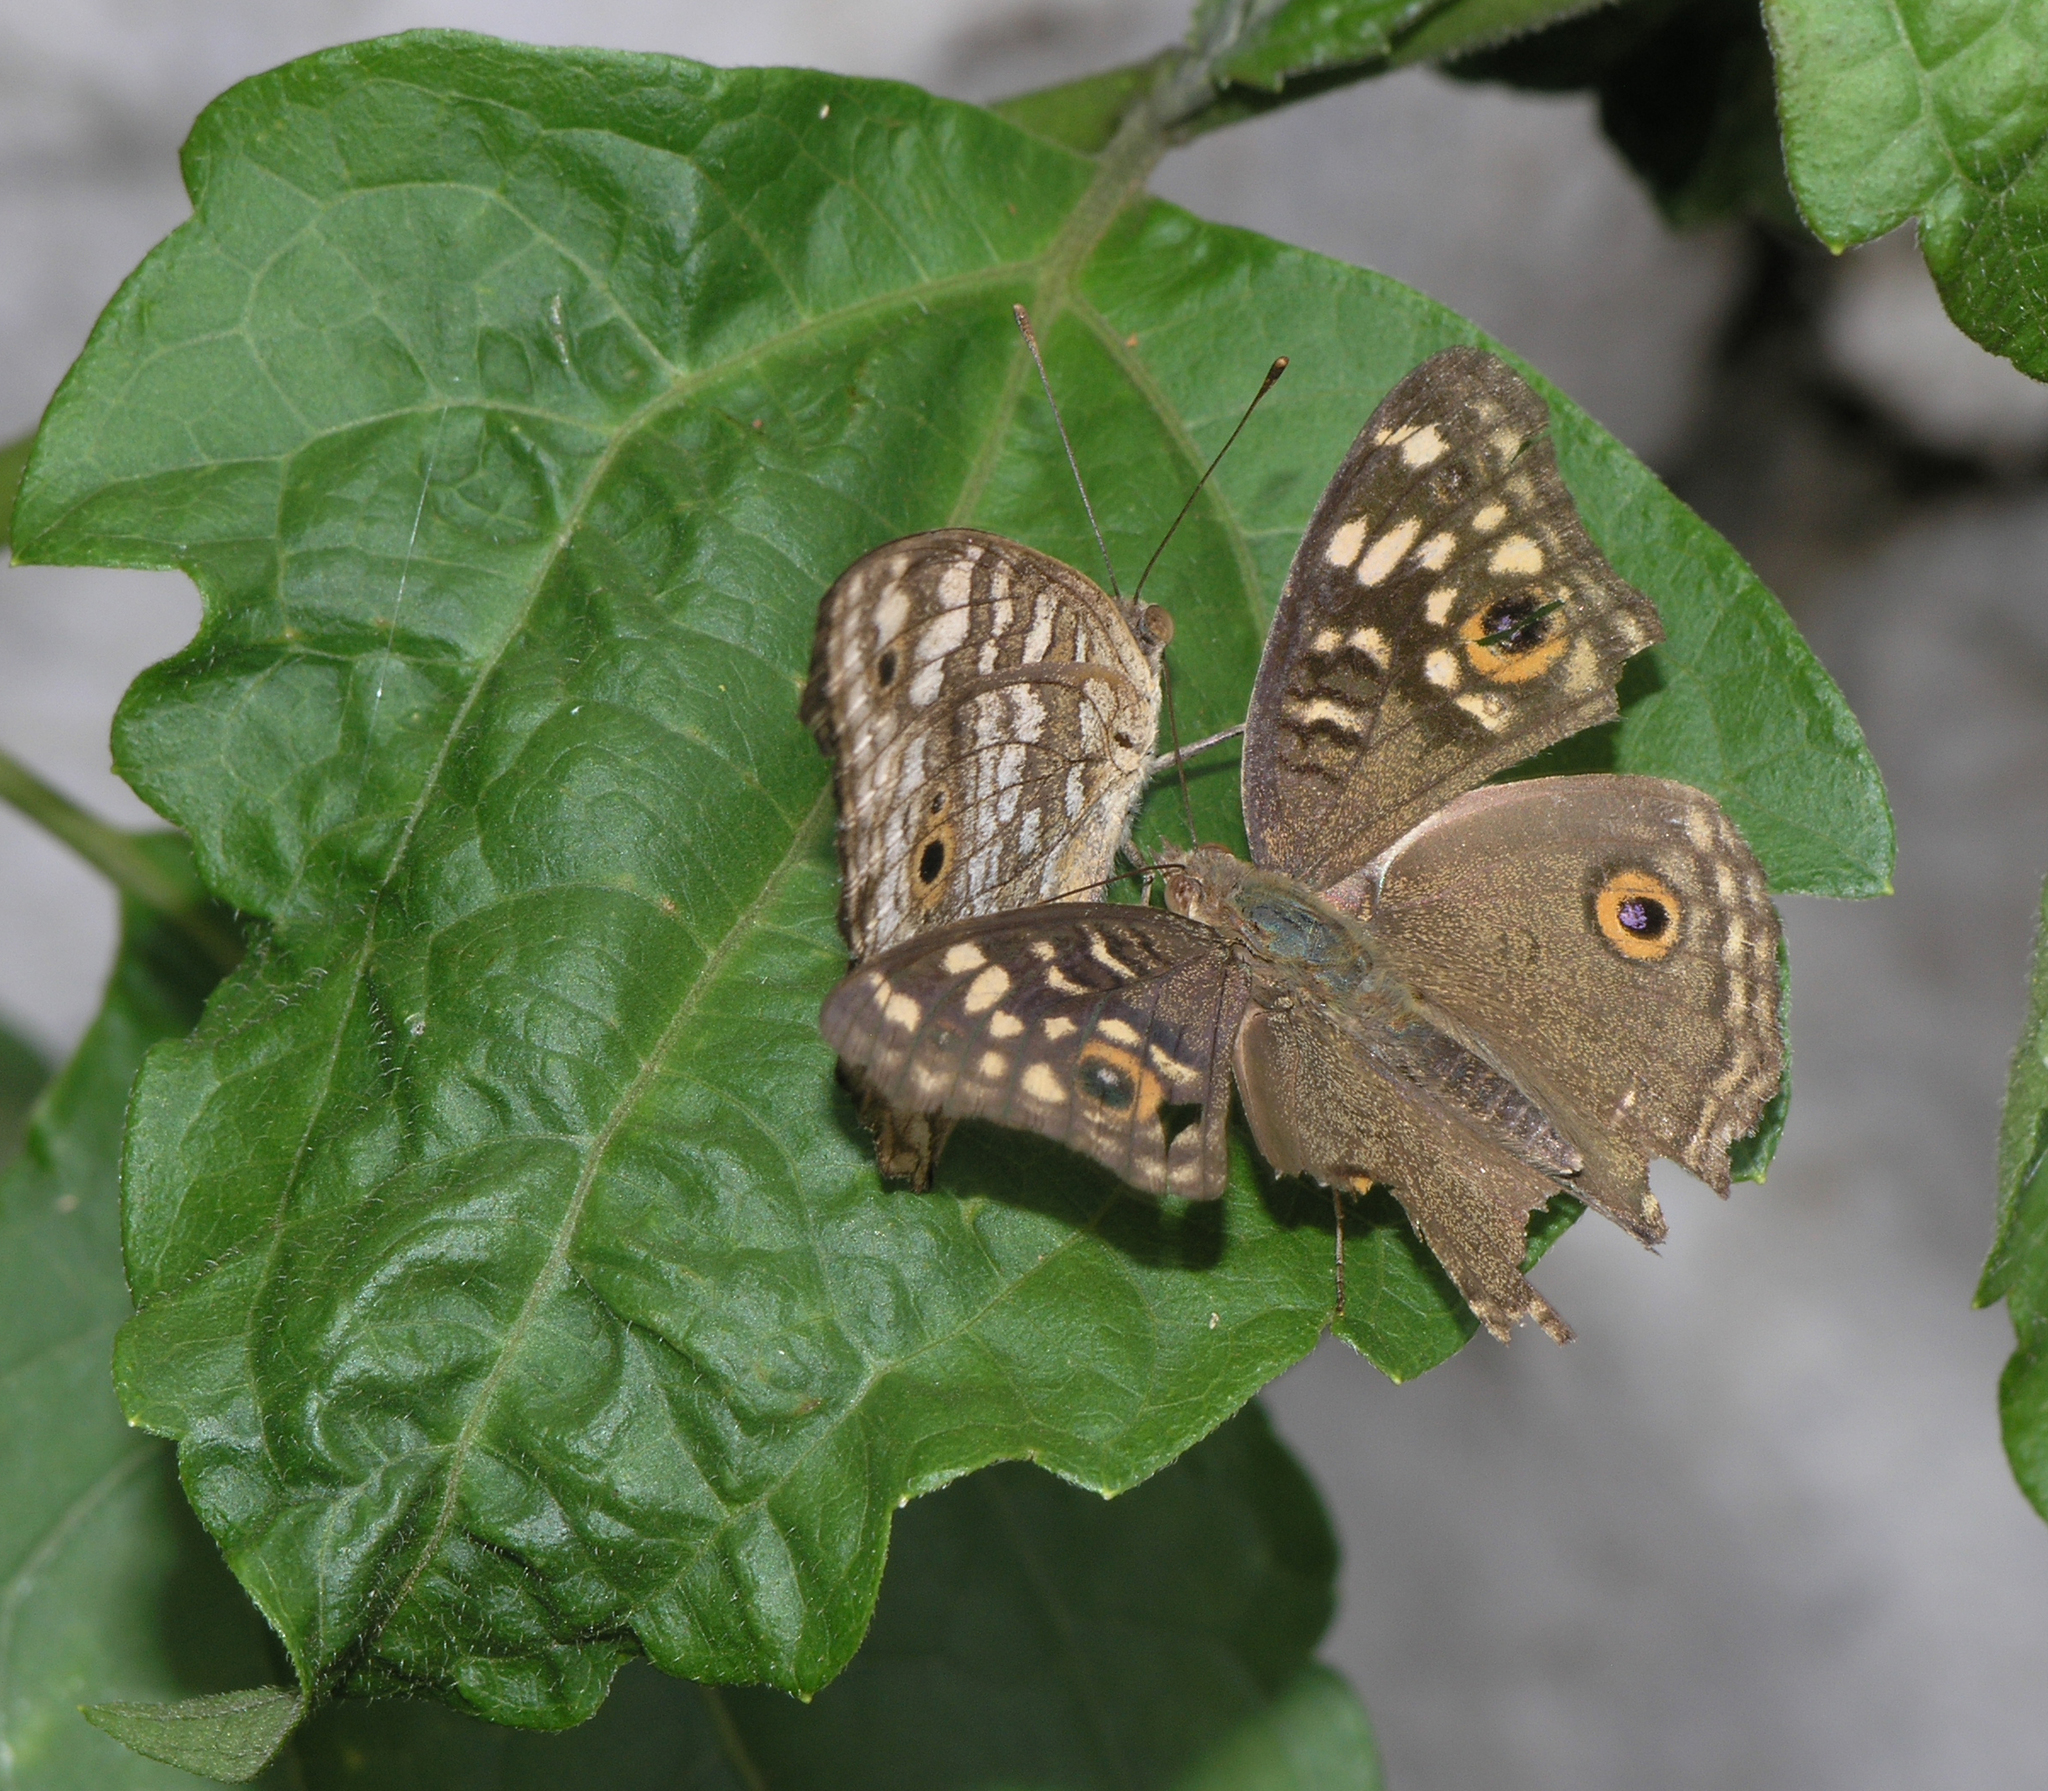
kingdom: Animalia
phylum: Arthropoda
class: Insecta
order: Lepidoptera
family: Nymphalidae
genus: Junonia
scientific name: Junonia lemonias
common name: Lemon pansy
